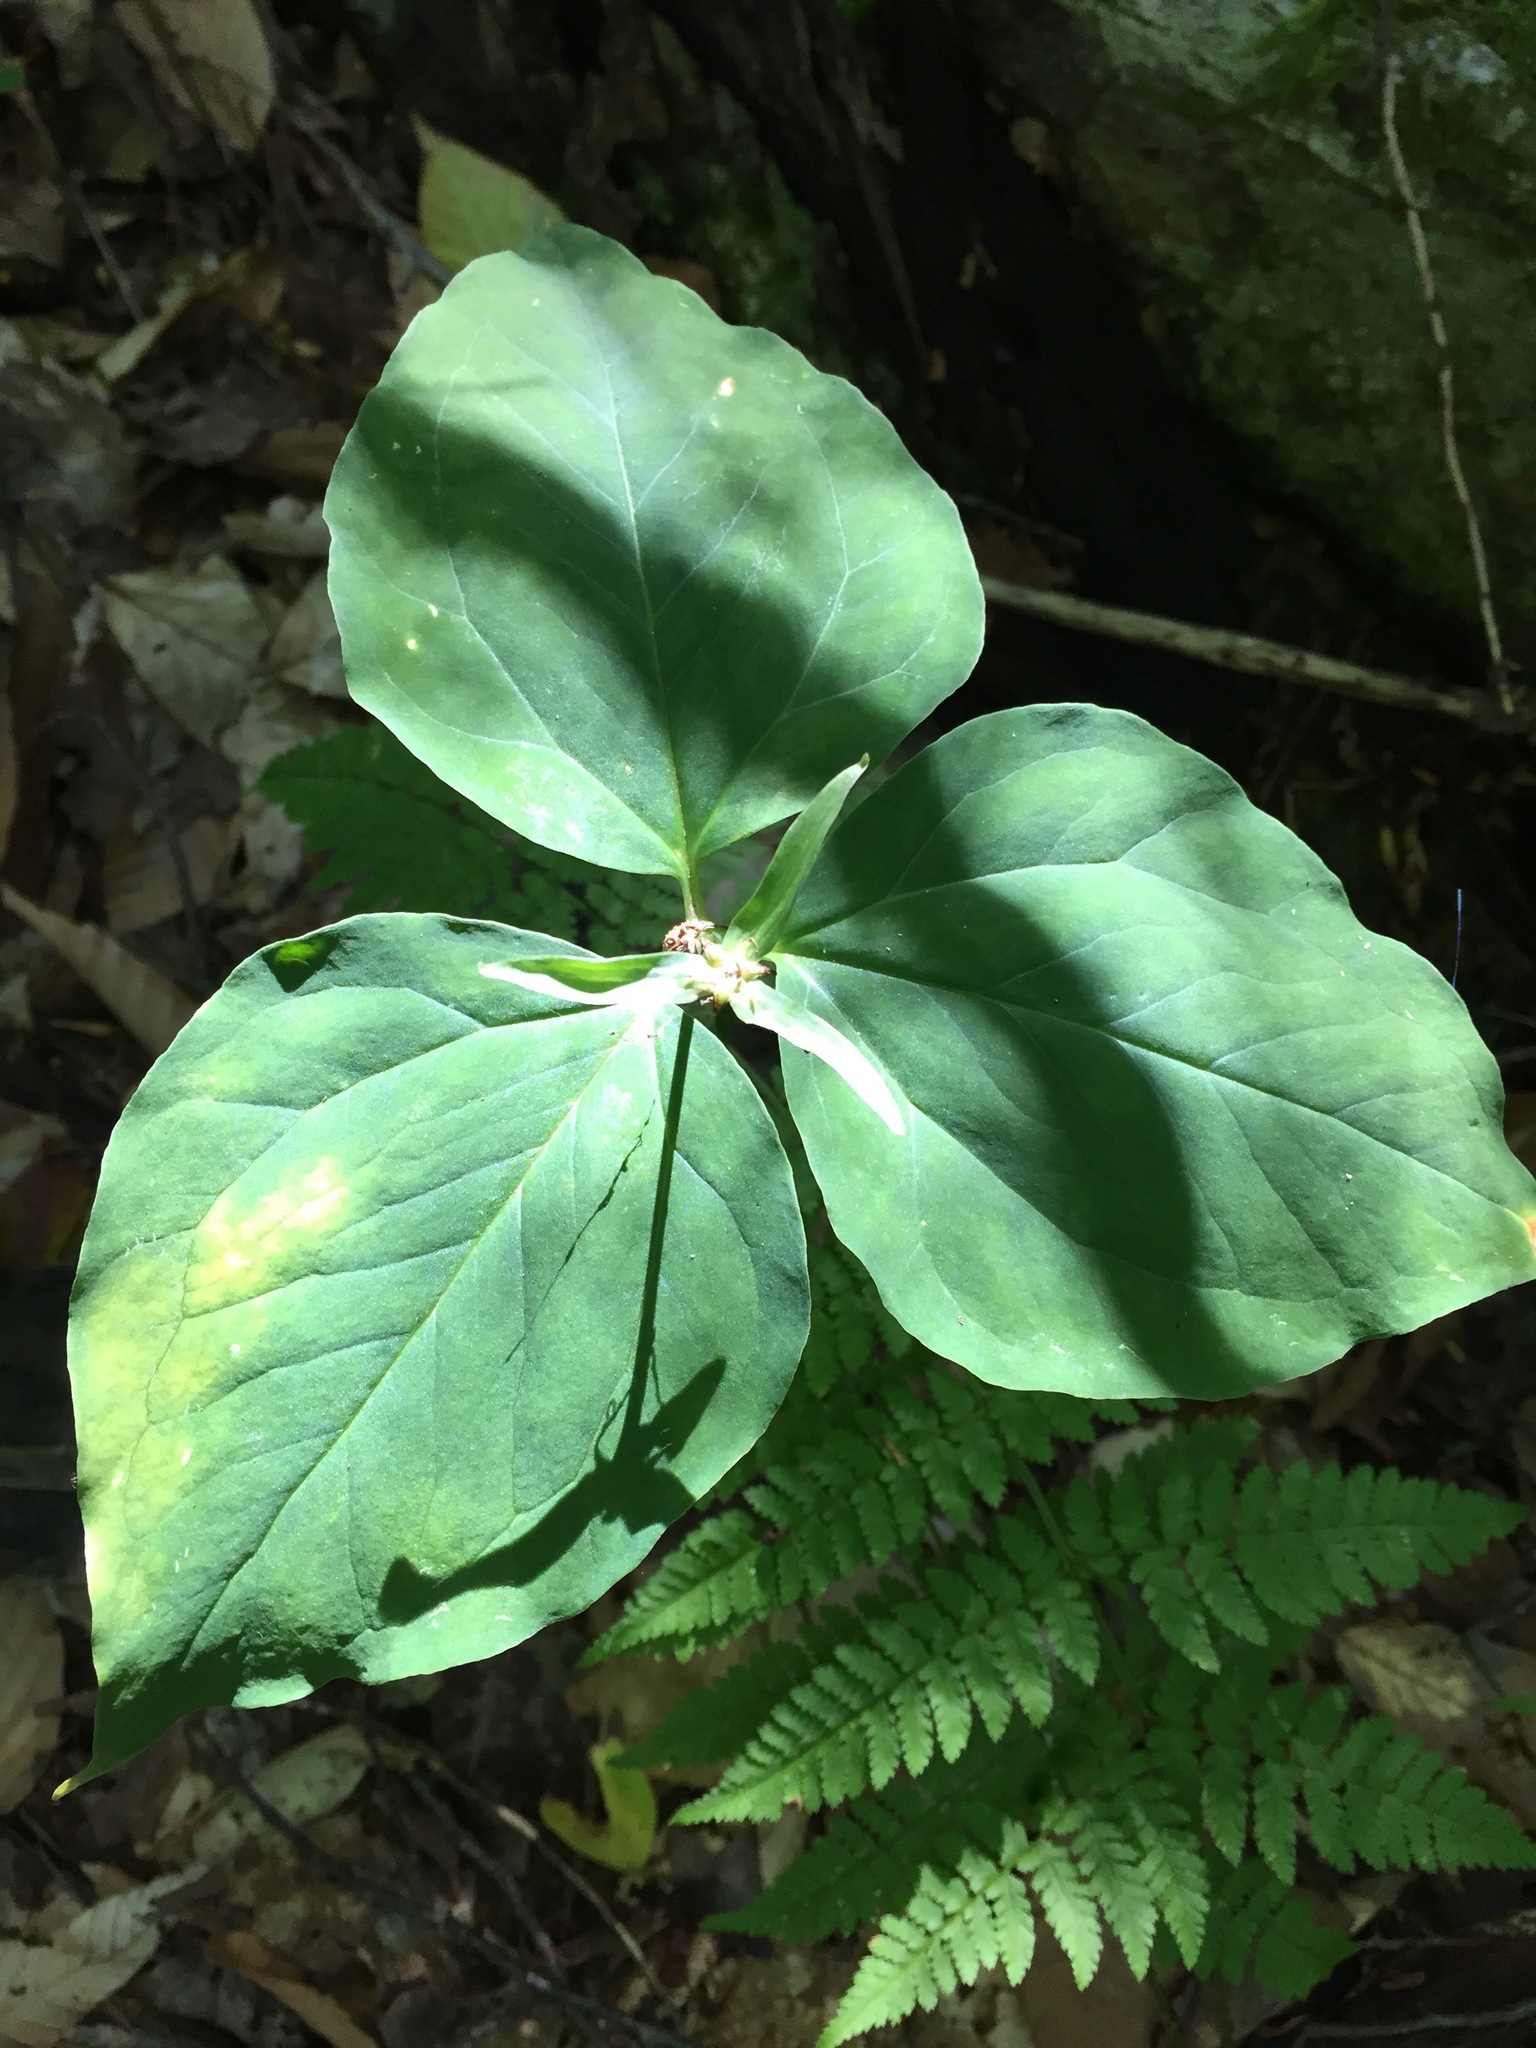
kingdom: Plantae
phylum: Tracheophyta
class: Liliopsida
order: Liliales
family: Melanthiaceae
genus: Trillium
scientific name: Trillium undulatum
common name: Paint trillium
